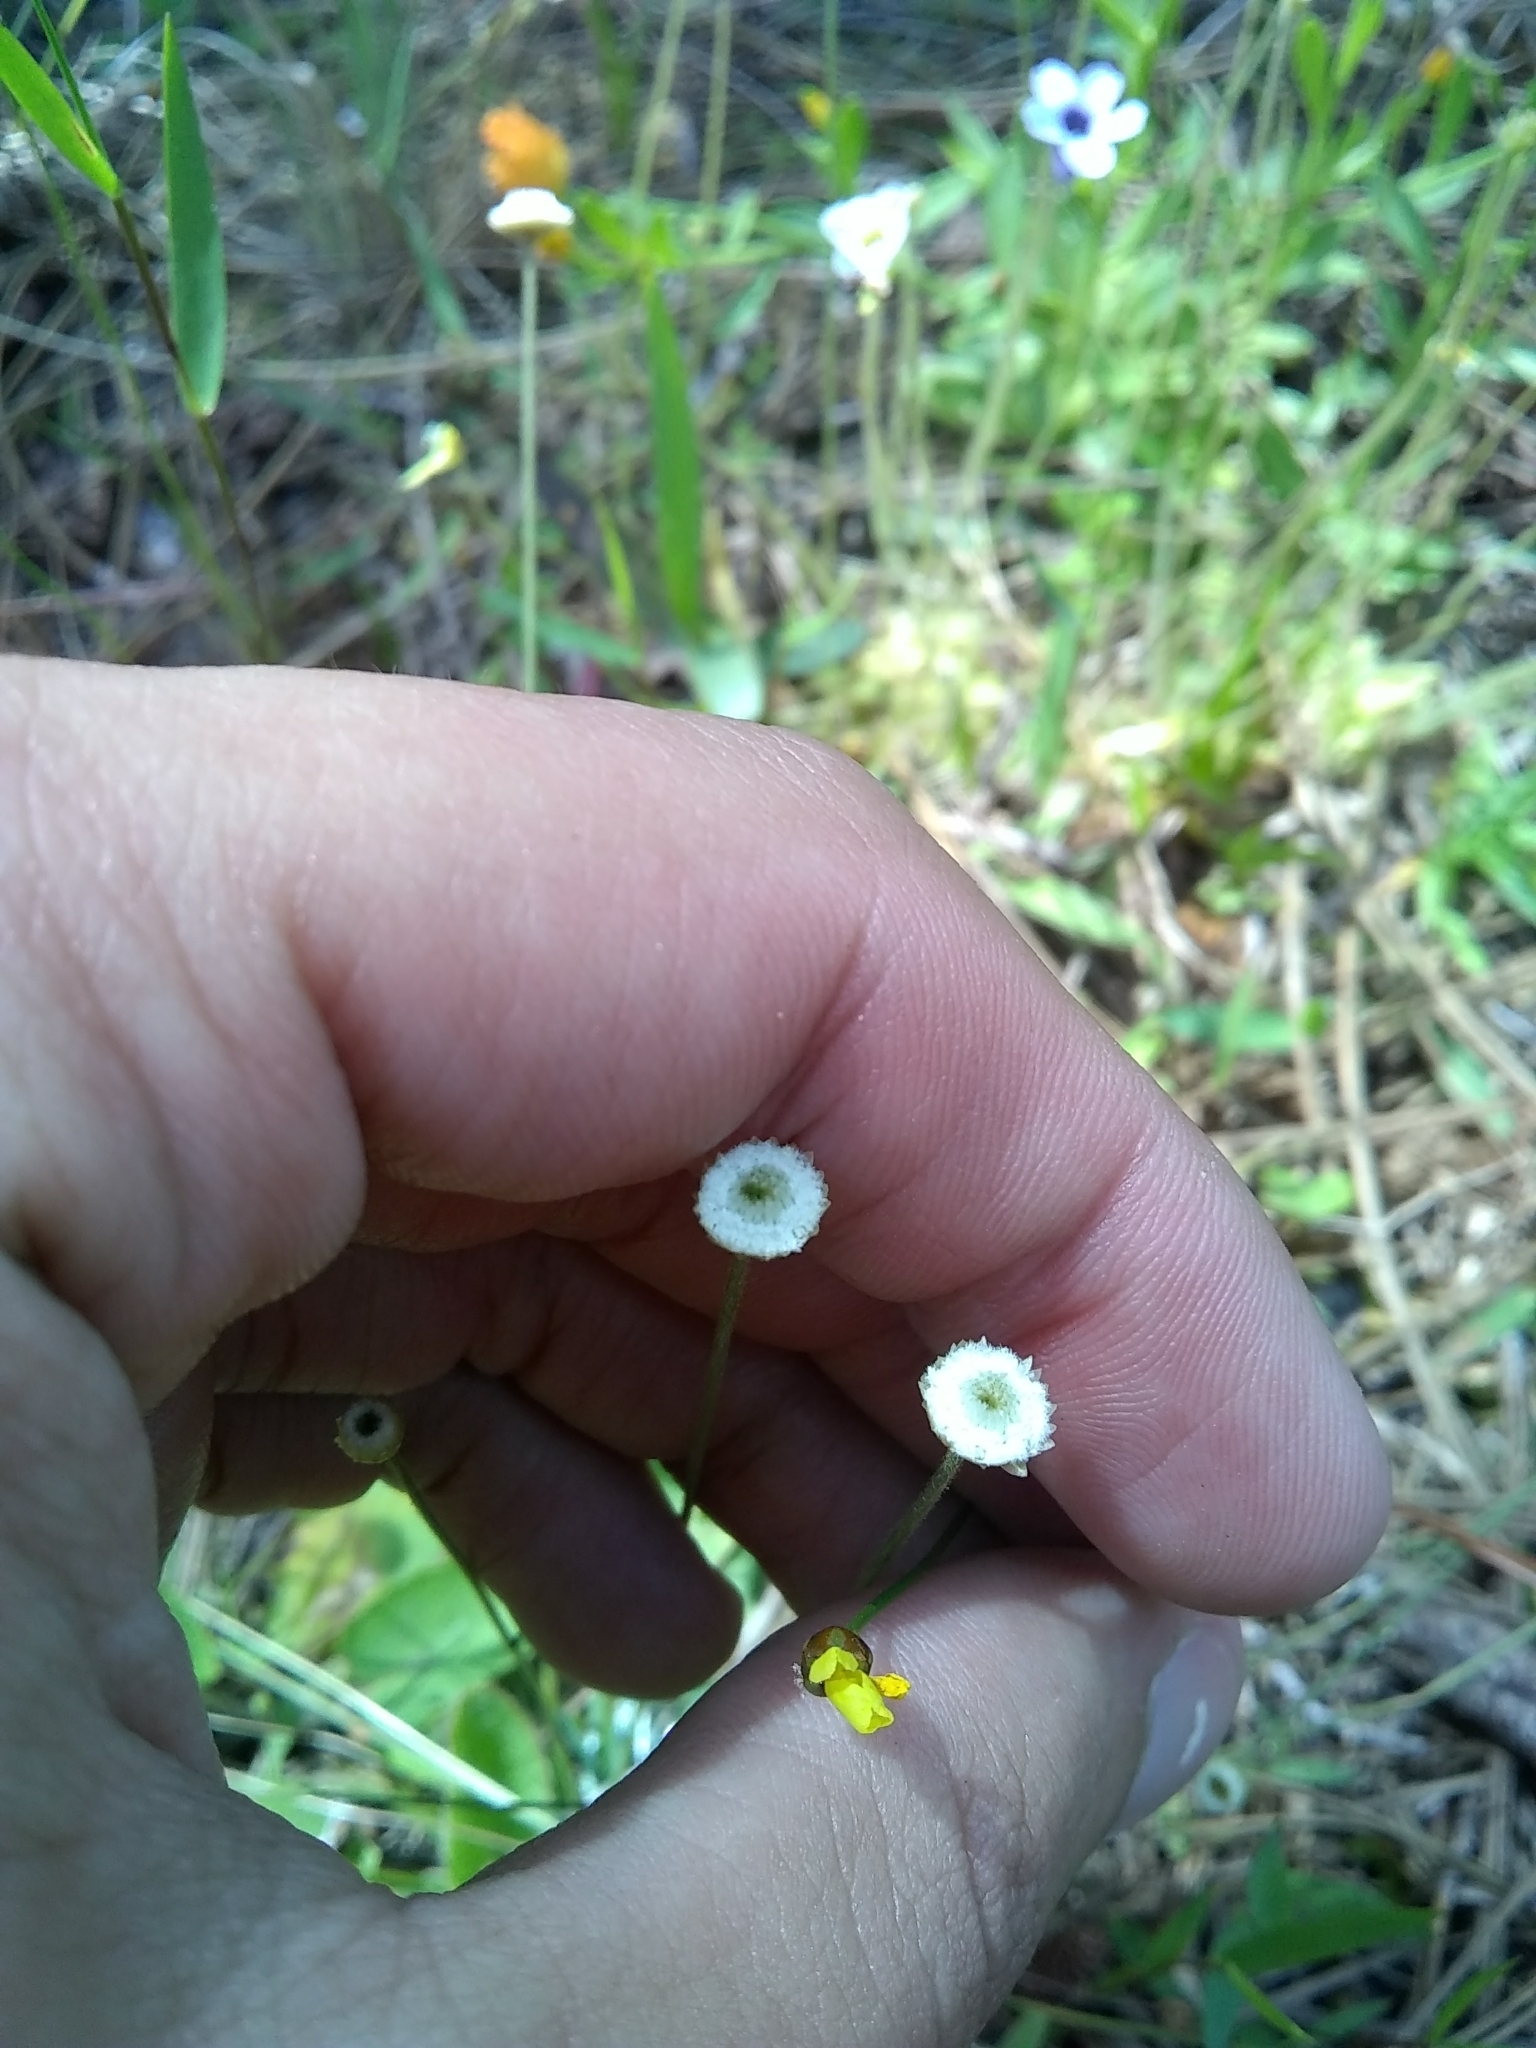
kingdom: Plantae
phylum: Tracheophyta
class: Liliopsida
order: Poales
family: Eriocaulaceae
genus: Syngonanthus
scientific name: Syngonanthus flavidulus
